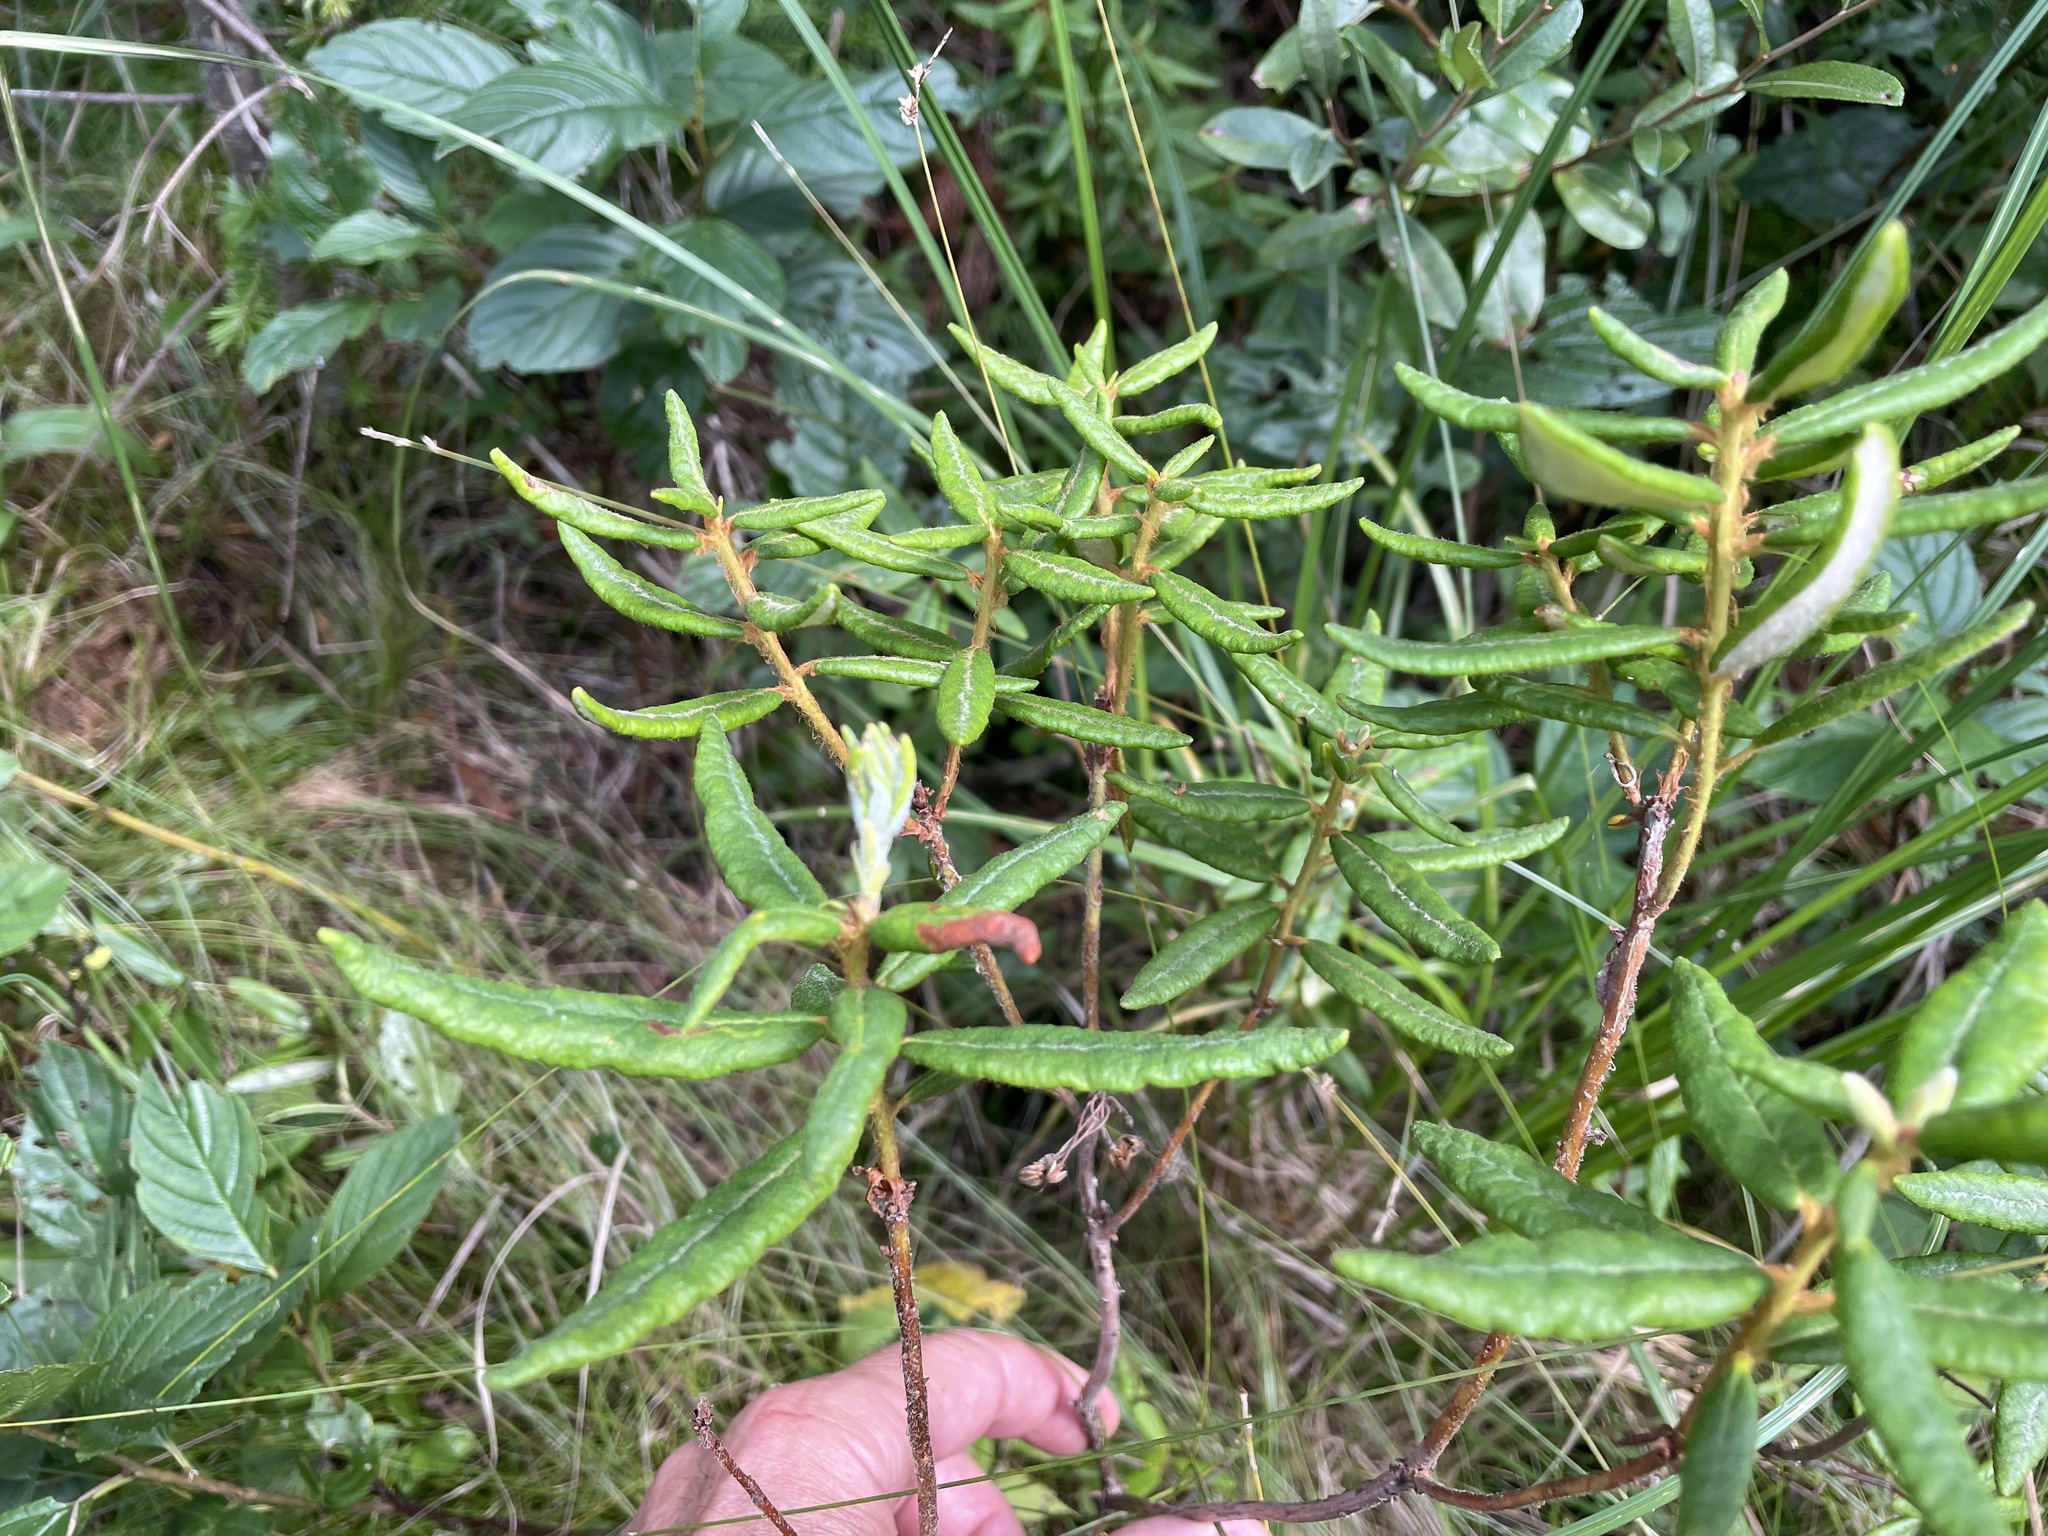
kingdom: Plantae
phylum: Tracheophyta
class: Magnoliopsida
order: Ericales
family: Ericaceae
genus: Rhododendron
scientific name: Rhododendron groenlandicum
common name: Bog labrador tea
